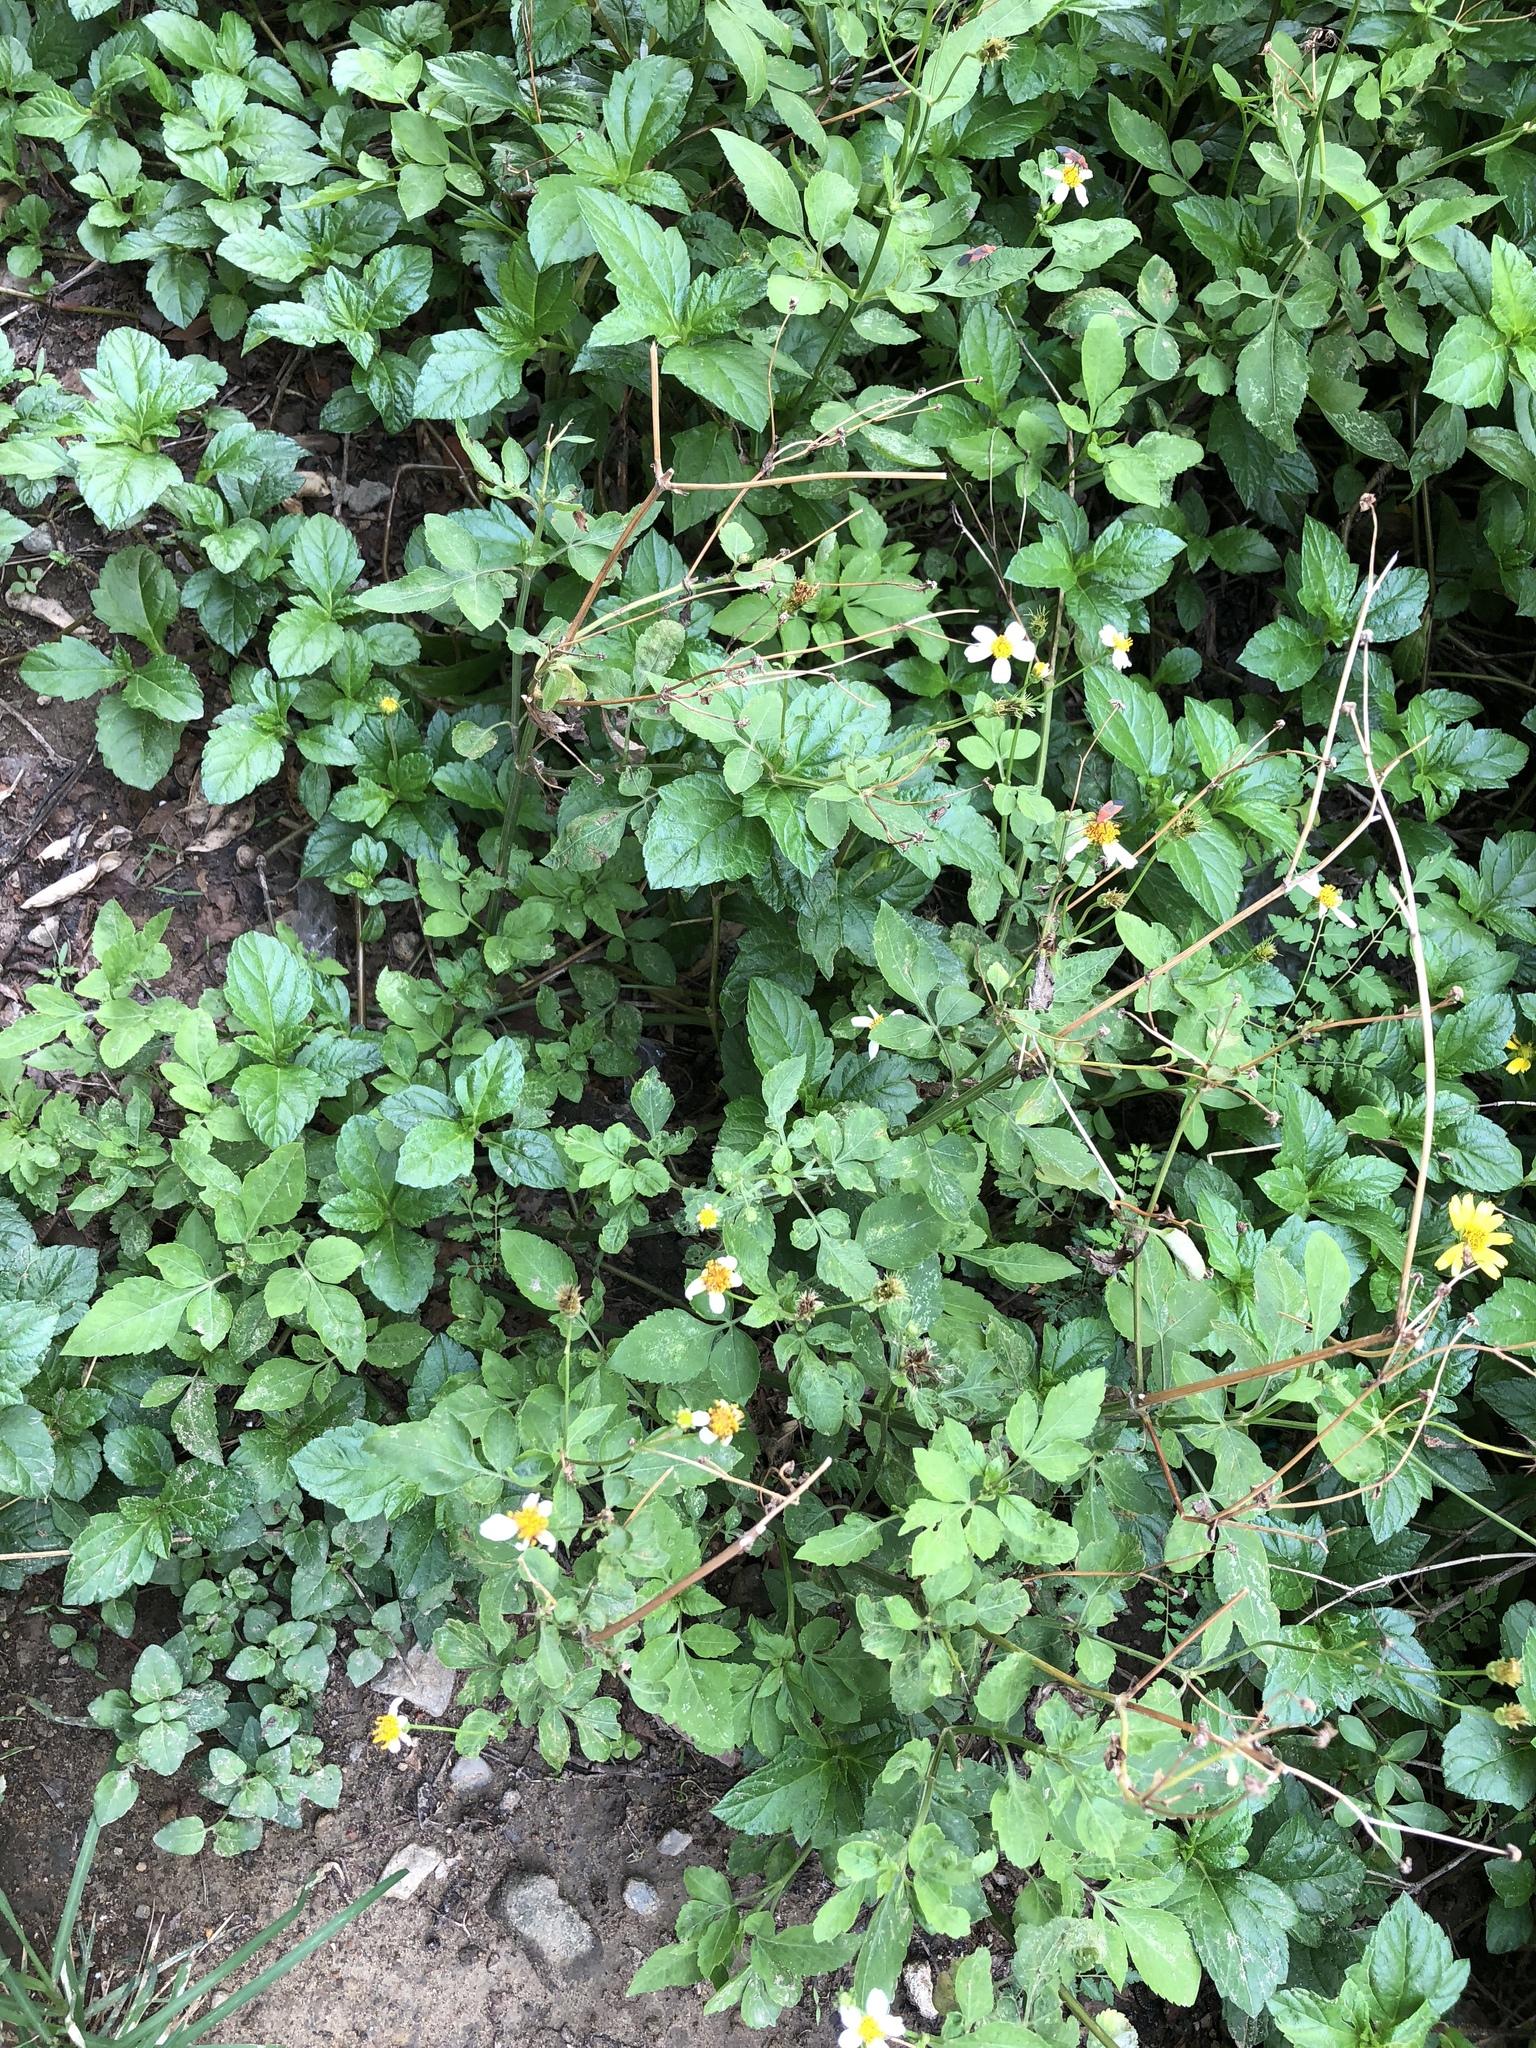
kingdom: Plantae
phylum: Tracheophyta
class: Magnoliopsida
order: Asterales
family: Asteraceae
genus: Bidens
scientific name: Bidens alba
